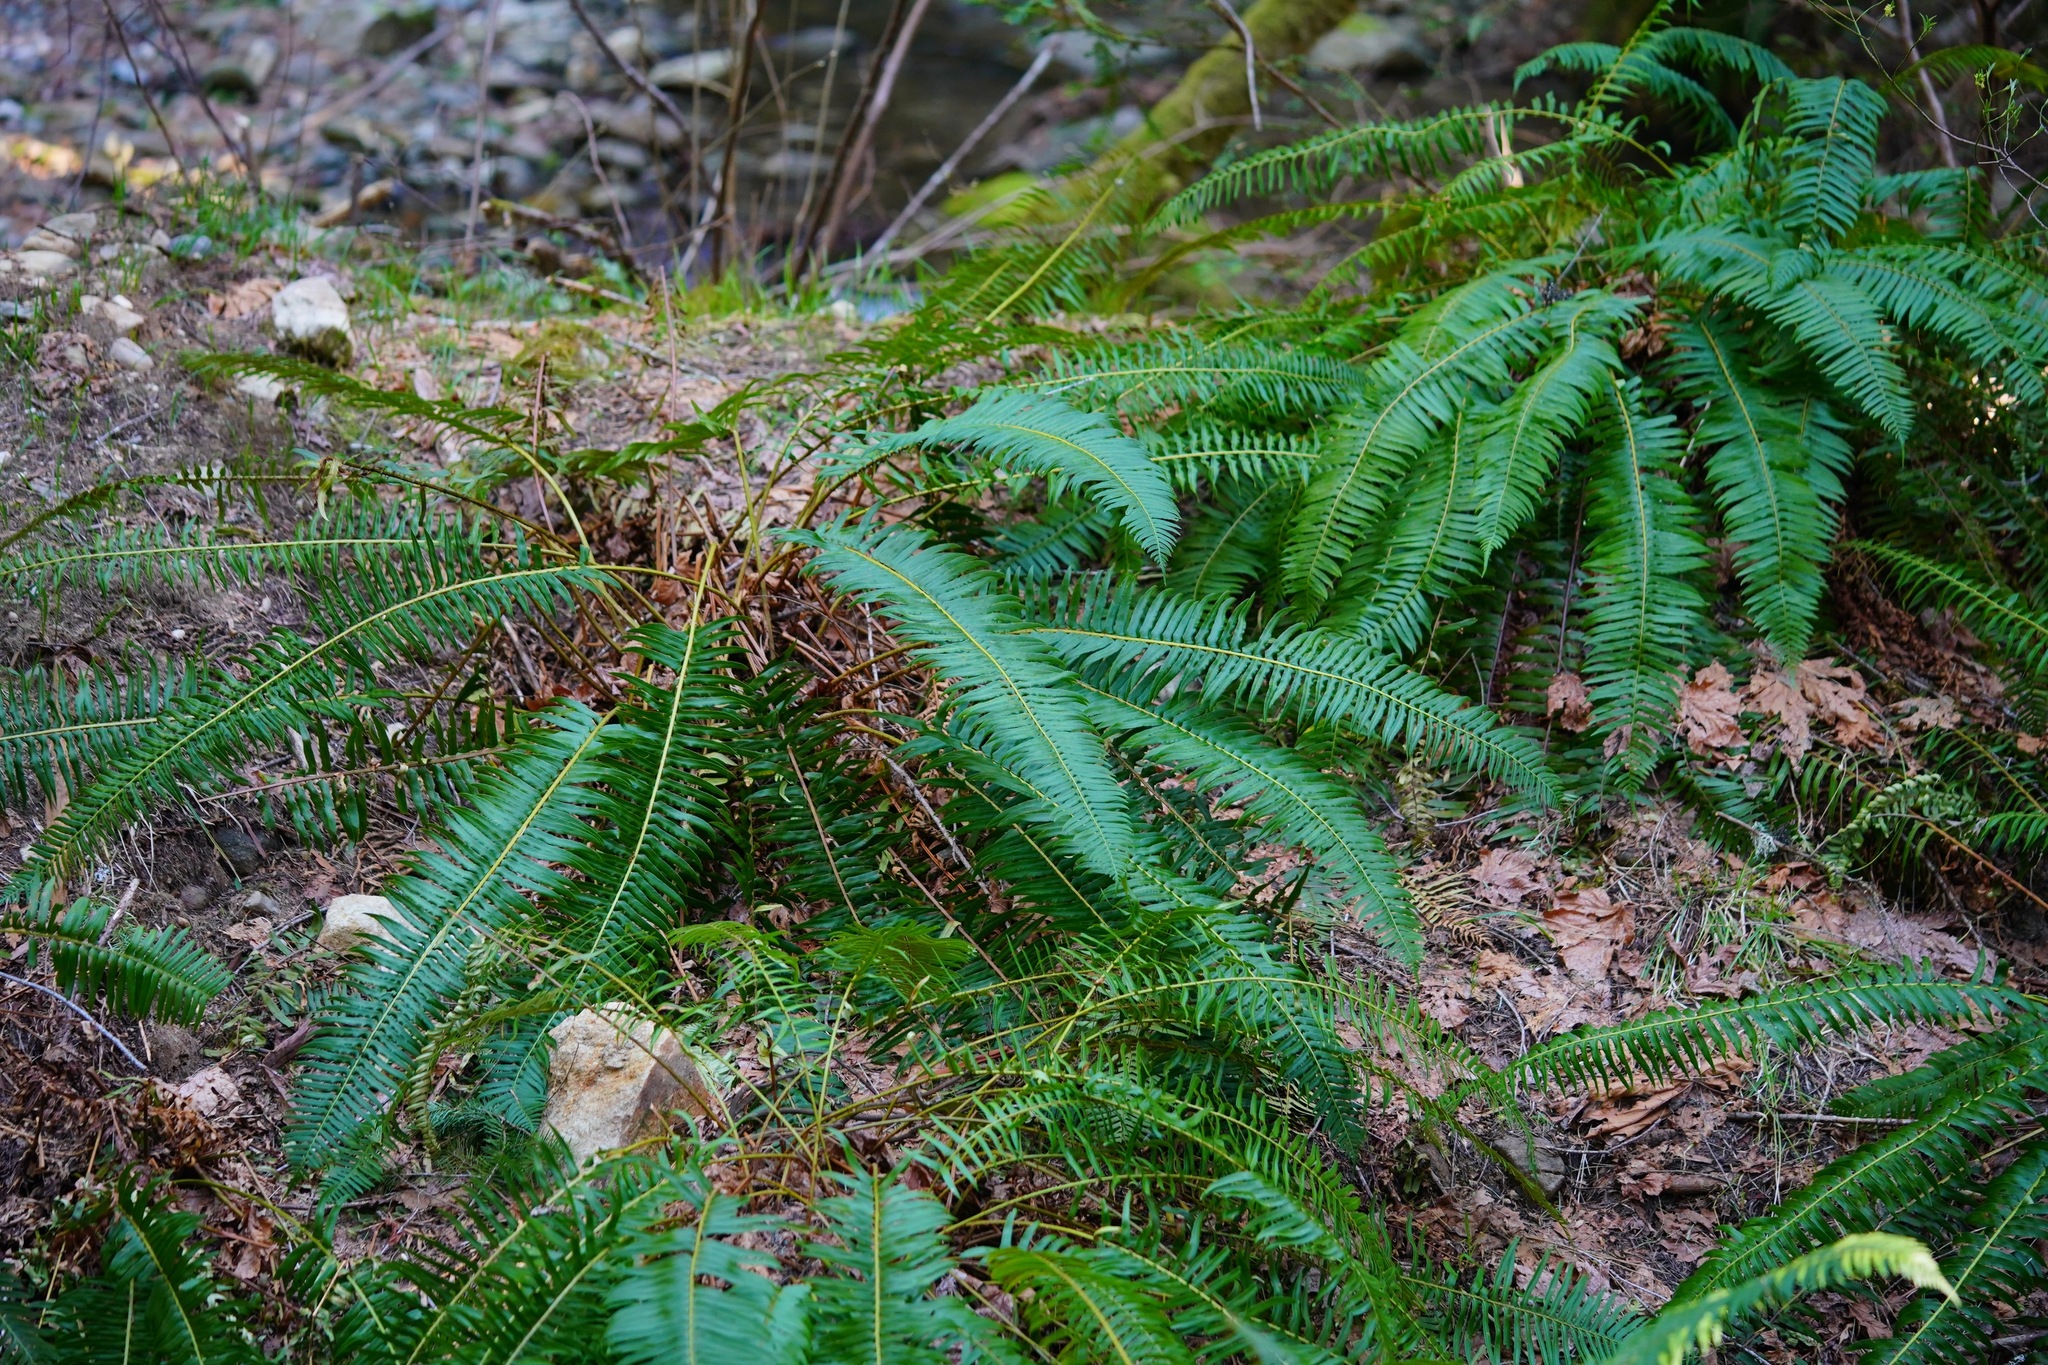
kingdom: Plantae
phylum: Tracheophyta
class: Polypodiopsida
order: Polypodiales
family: Dryopteridaceae
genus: Polystichum
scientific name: Polystichum munitum
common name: Western sword-fern
